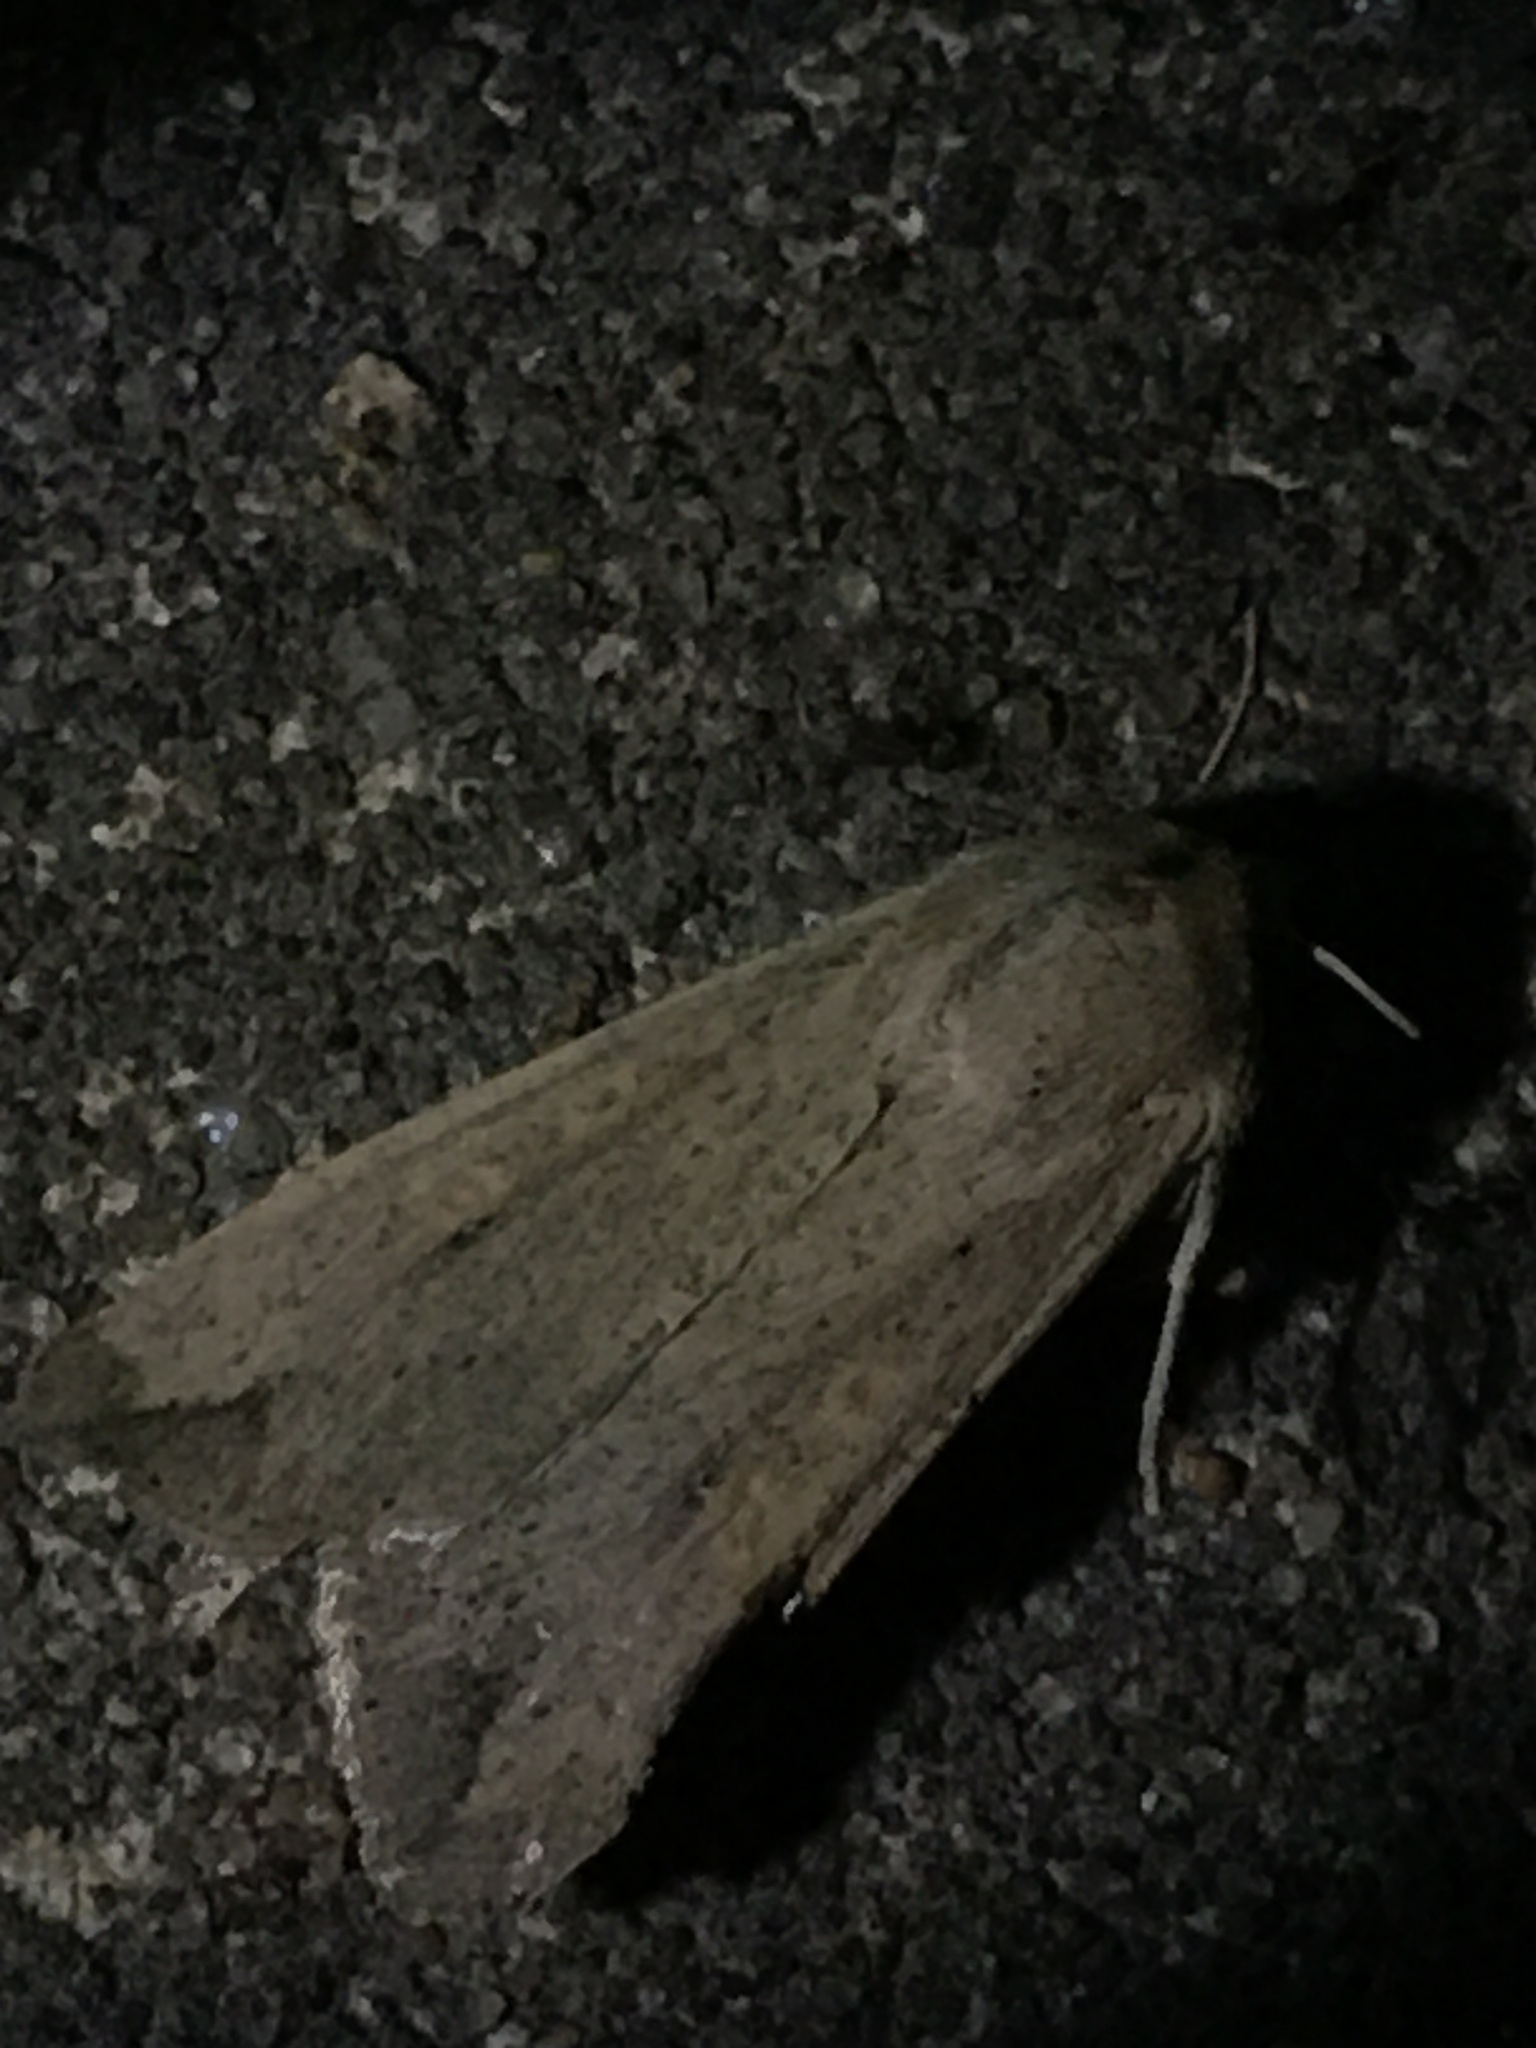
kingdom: Animalia
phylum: Arthropoda
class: Insecta
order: Lepidoptera
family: Noctuidae
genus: Mythimna
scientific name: Mythimna unipuncta
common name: White-speck
